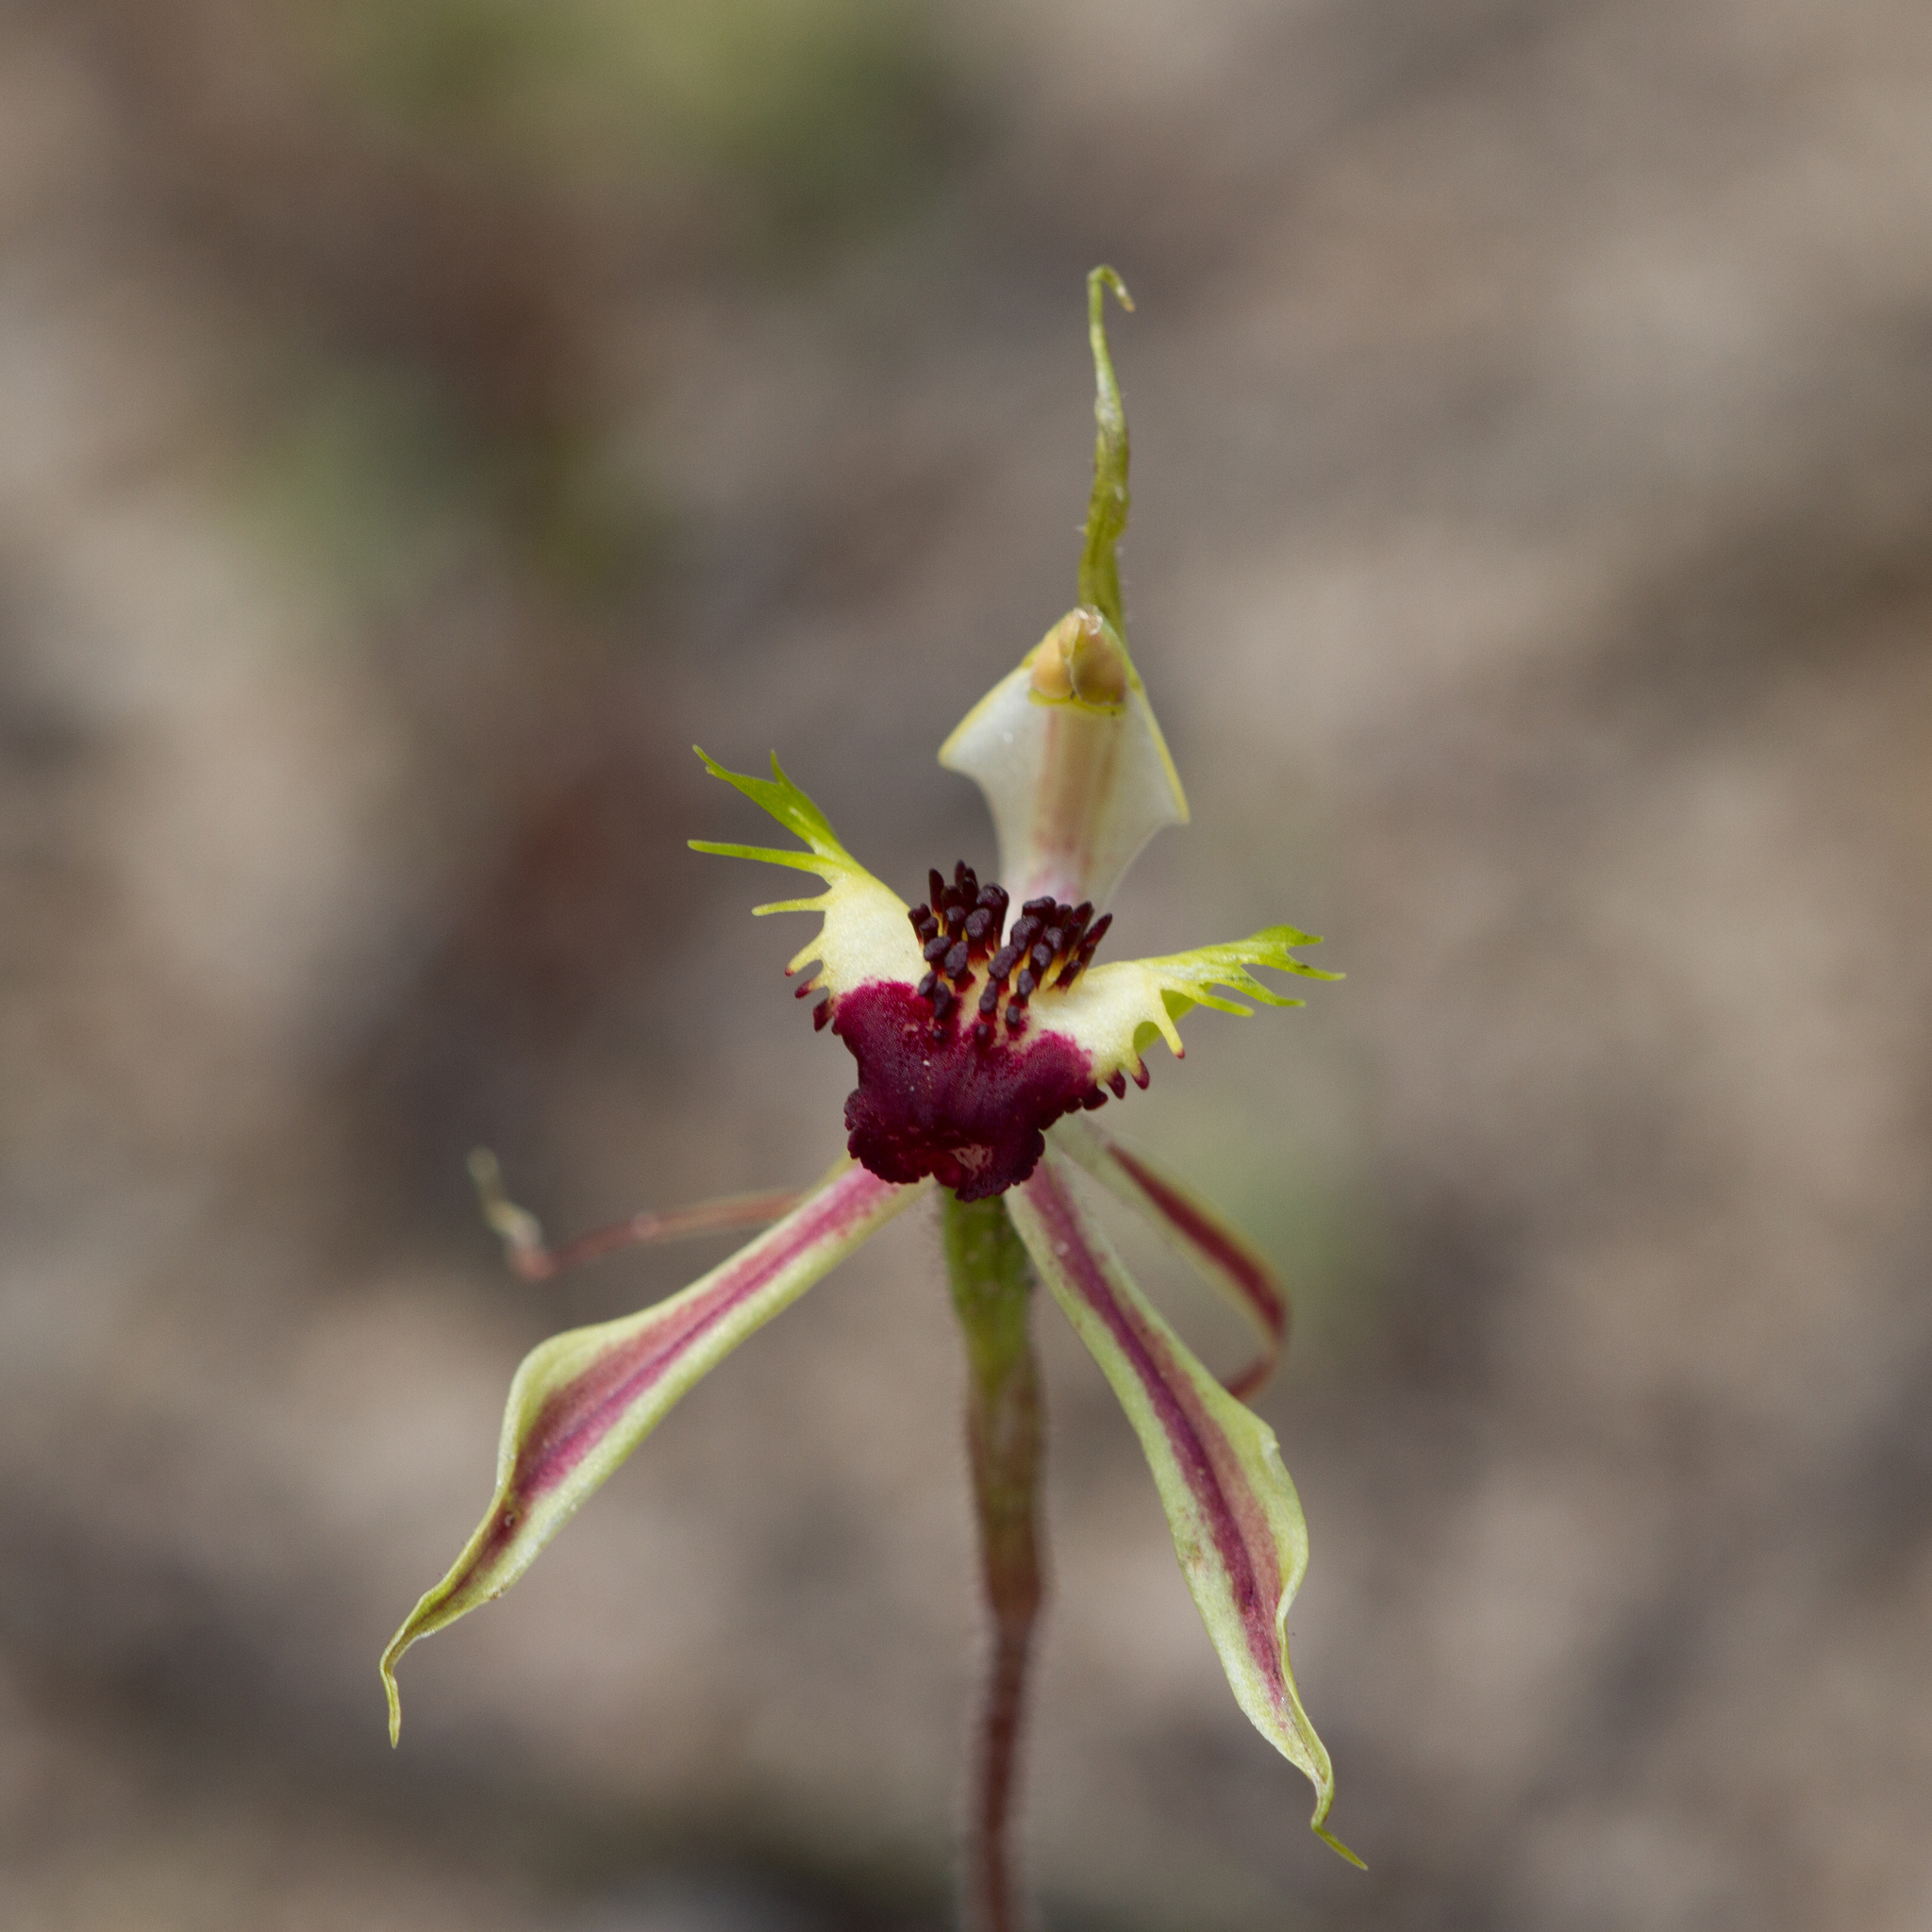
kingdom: Plantae
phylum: Tracheophyta
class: Liliopsida
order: Asparagales
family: Orchidaceae
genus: Caladenia
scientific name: Caladenia stricta
